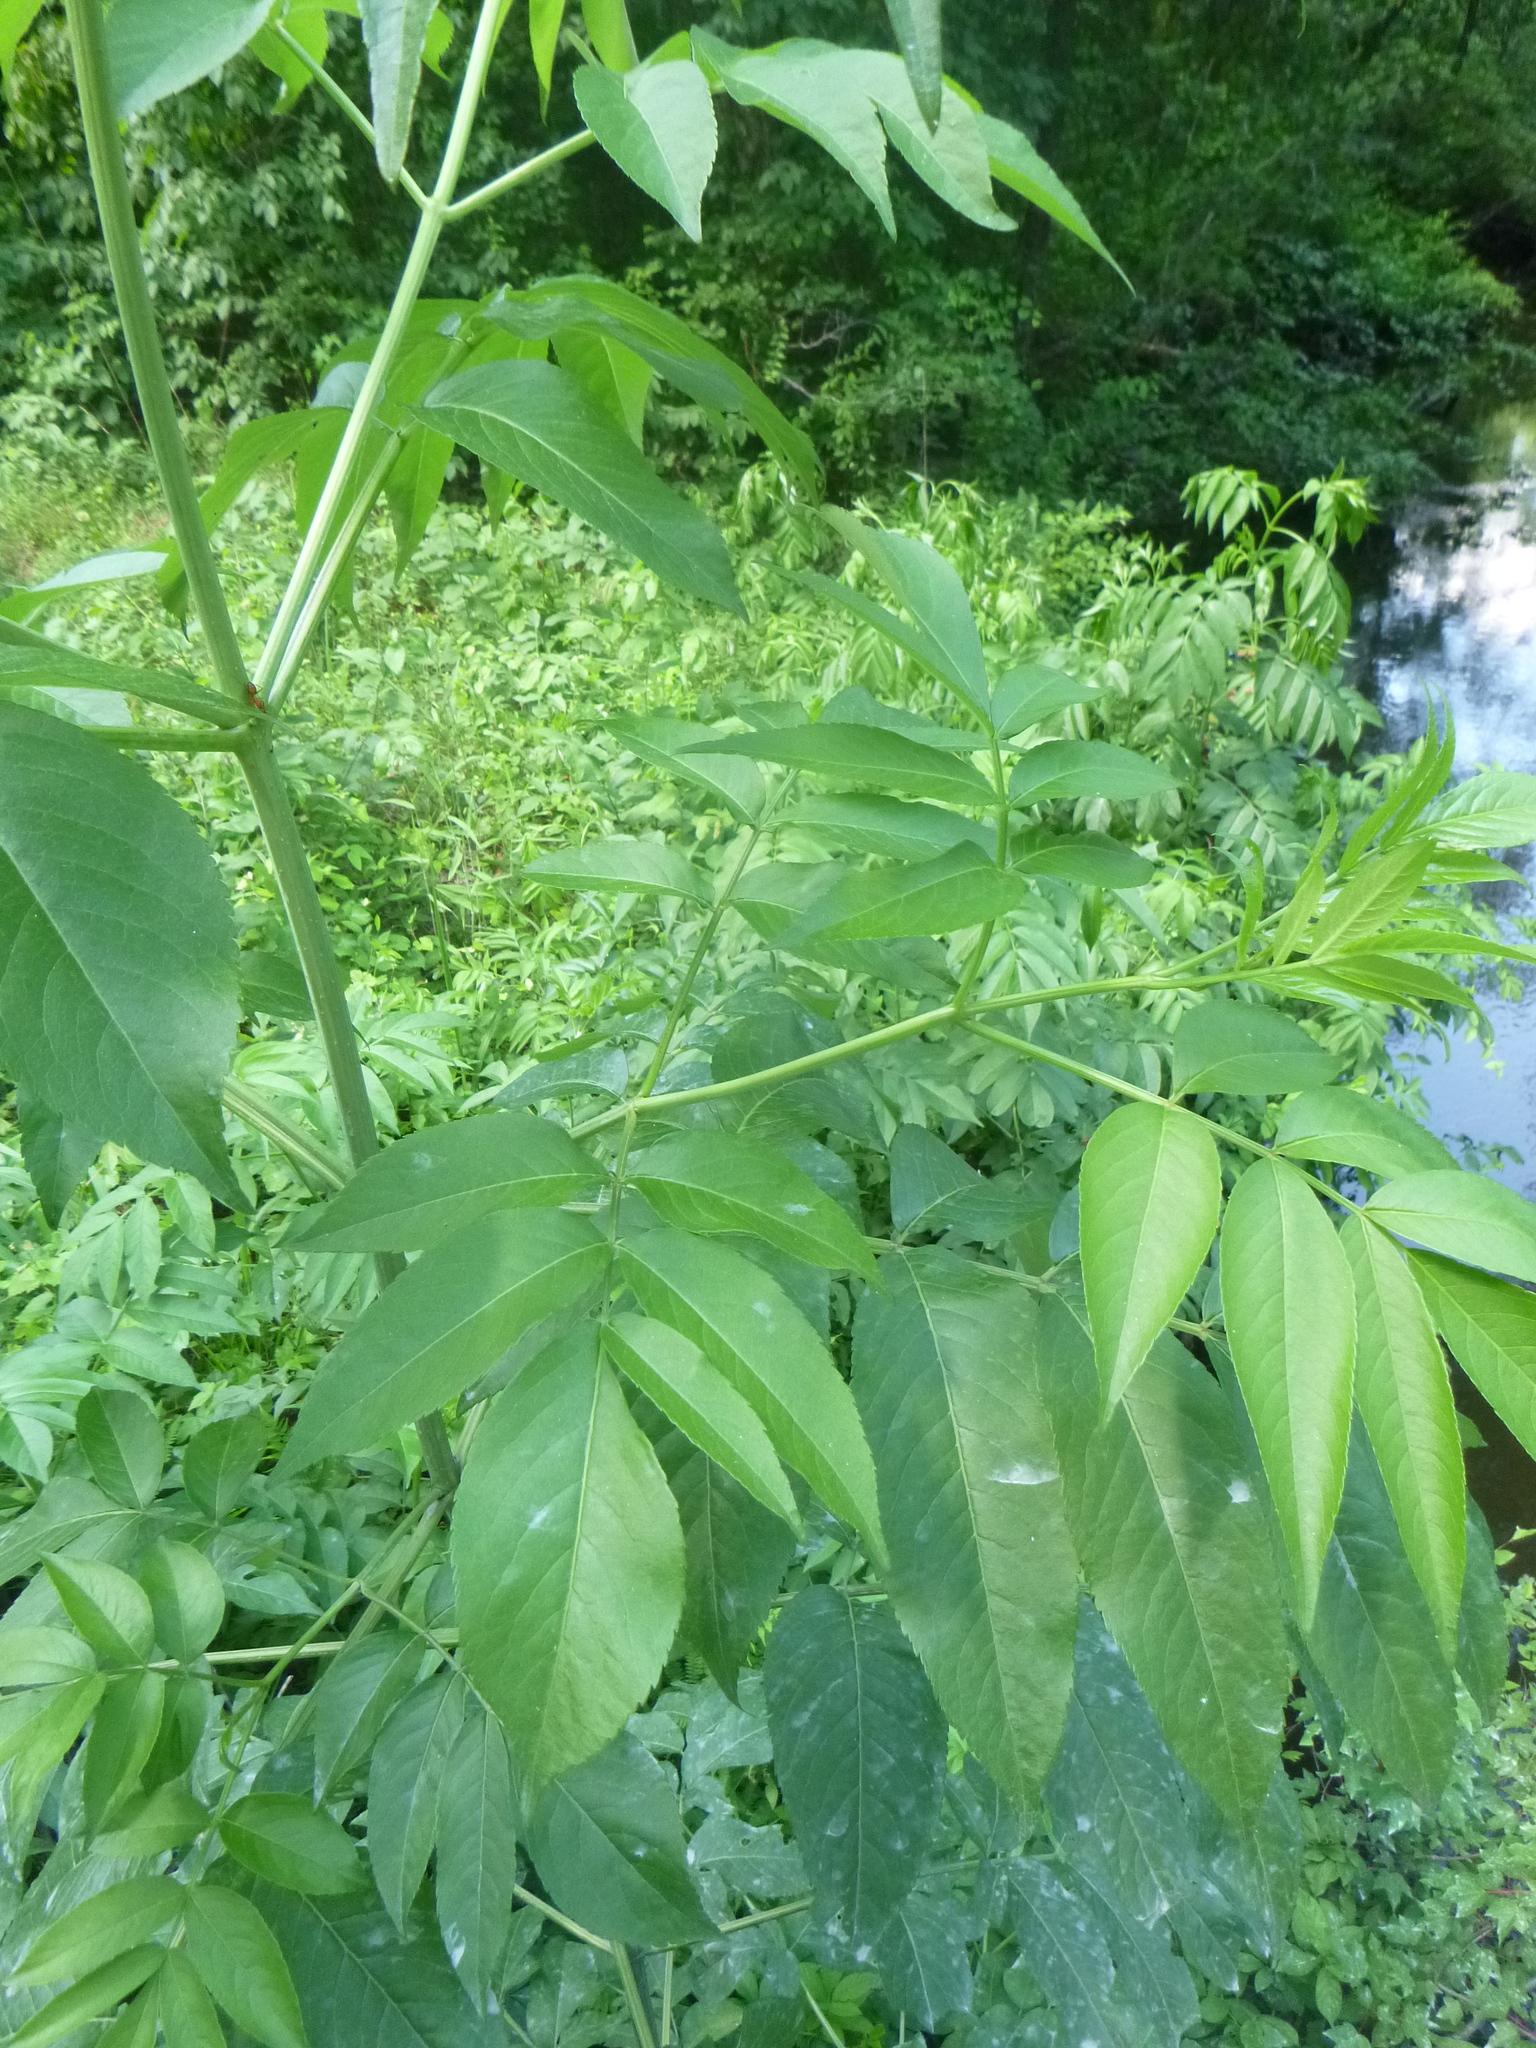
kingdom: Plantae
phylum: Tracheophyta
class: Magnoliopsida
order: Dipsacales
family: Viburnaceae
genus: Sambucus
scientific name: Sambucus canadensis
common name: American elder
